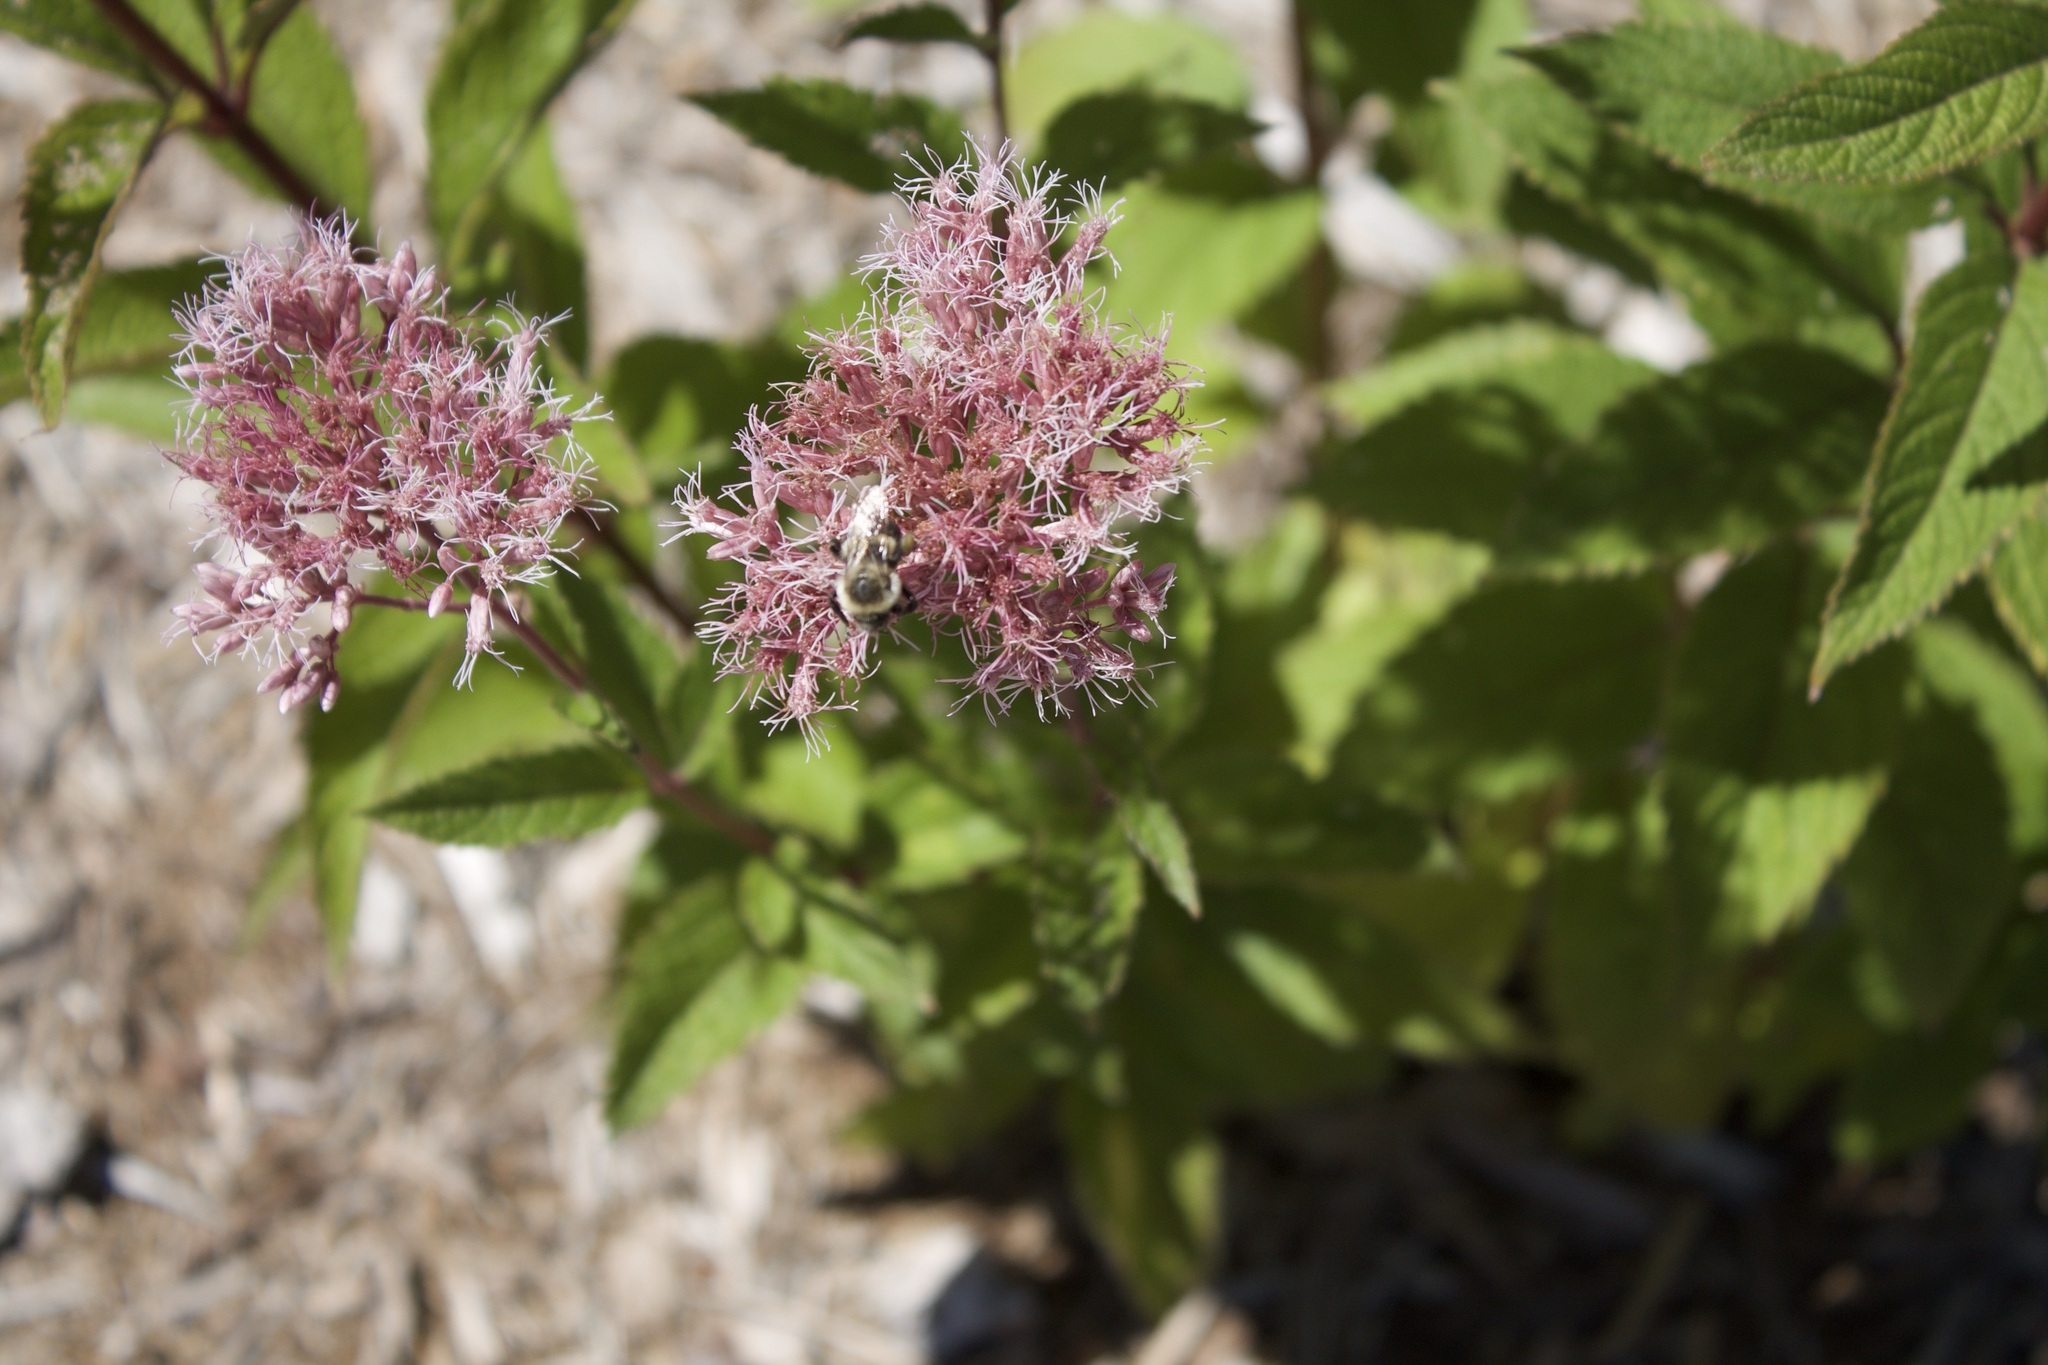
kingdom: Animalia
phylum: Arthropoda
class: Insecta
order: Hymenoptera
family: Apidae
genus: Bombus
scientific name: Bombus impatiens
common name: Common eastern bumble bee
